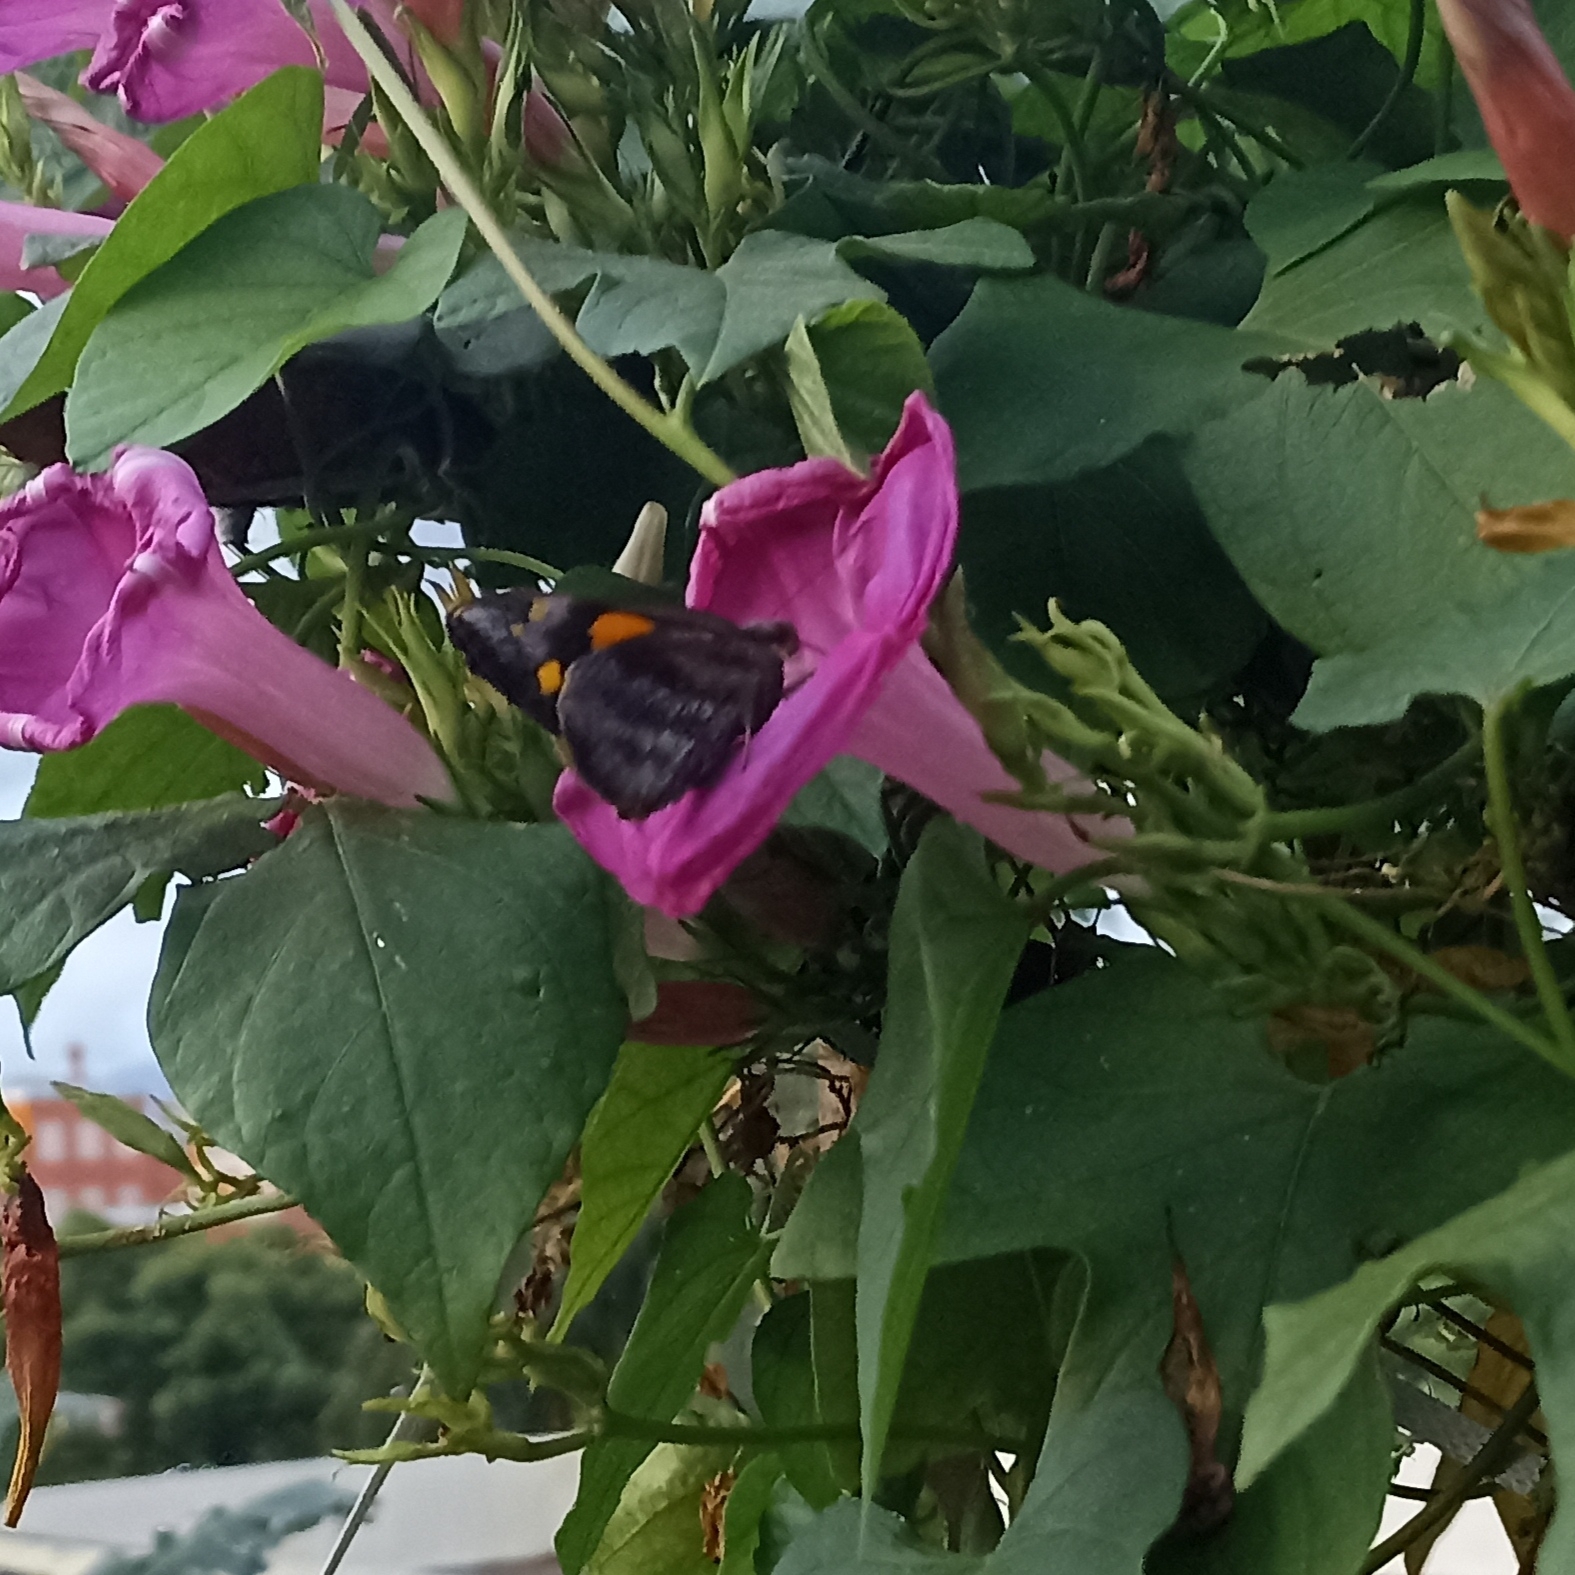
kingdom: Animalia
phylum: Arthropoda
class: Insecta
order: Lepidoptera
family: Hesperiidae
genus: Gangara
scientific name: Gangara thyrsis
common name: Giant redeye
